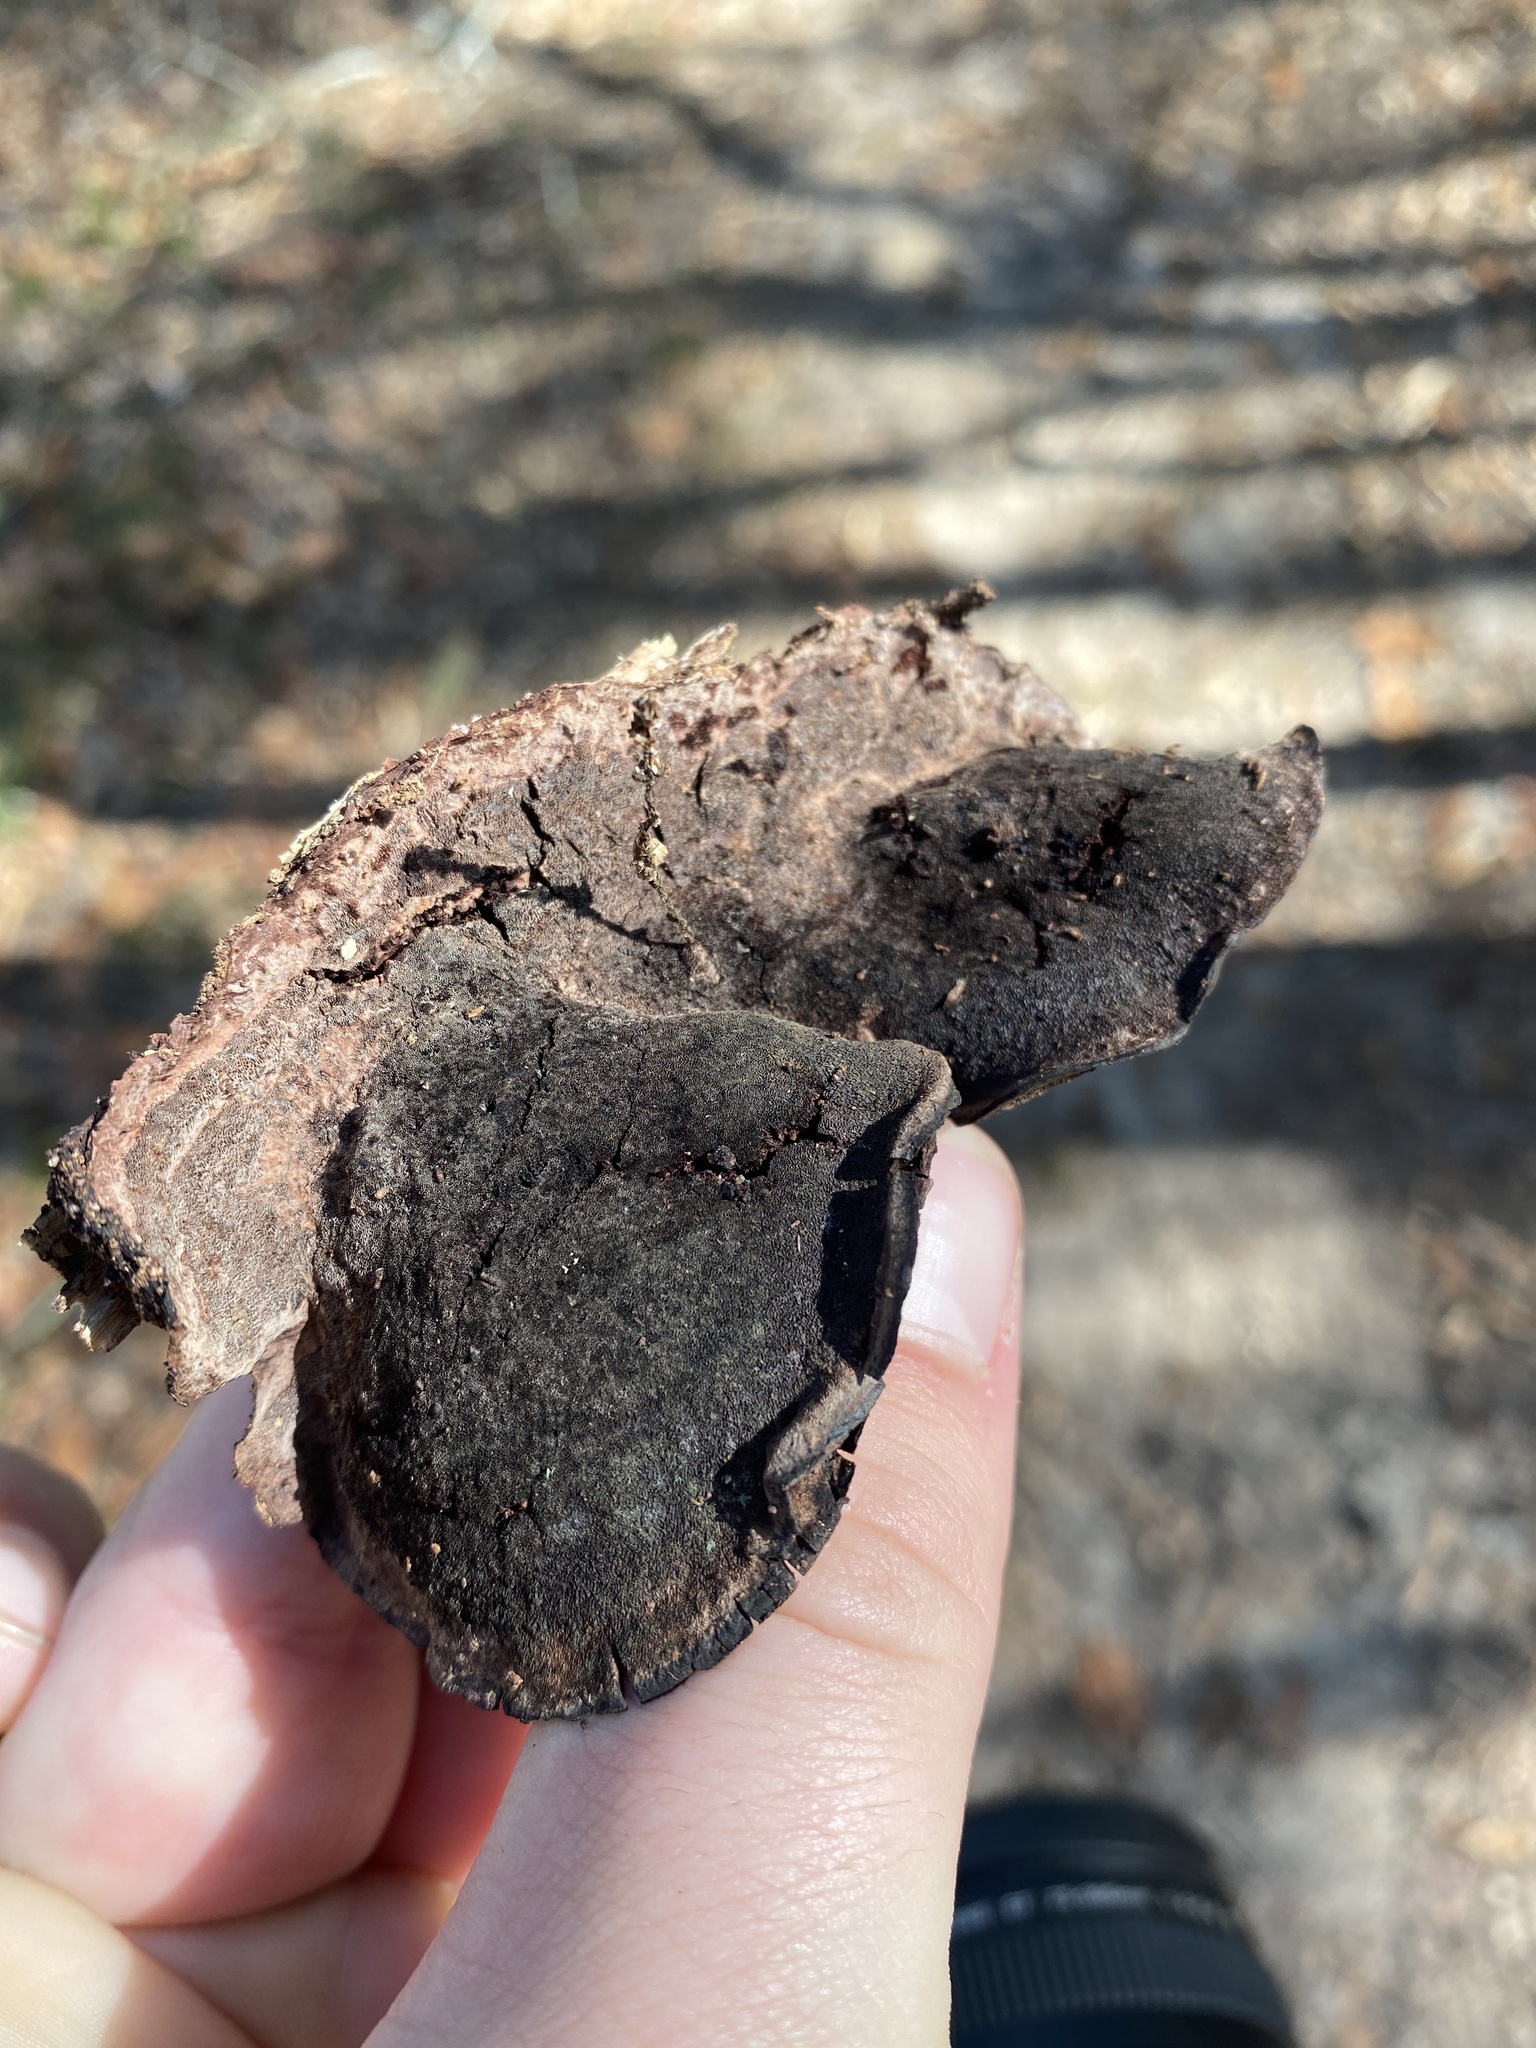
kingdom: Fungi
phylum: Basidiomycota
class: Agaricomycetes
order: Polyporales
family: Cerrenaceae
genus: Cerrena
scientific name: Cerrena hydnoides
